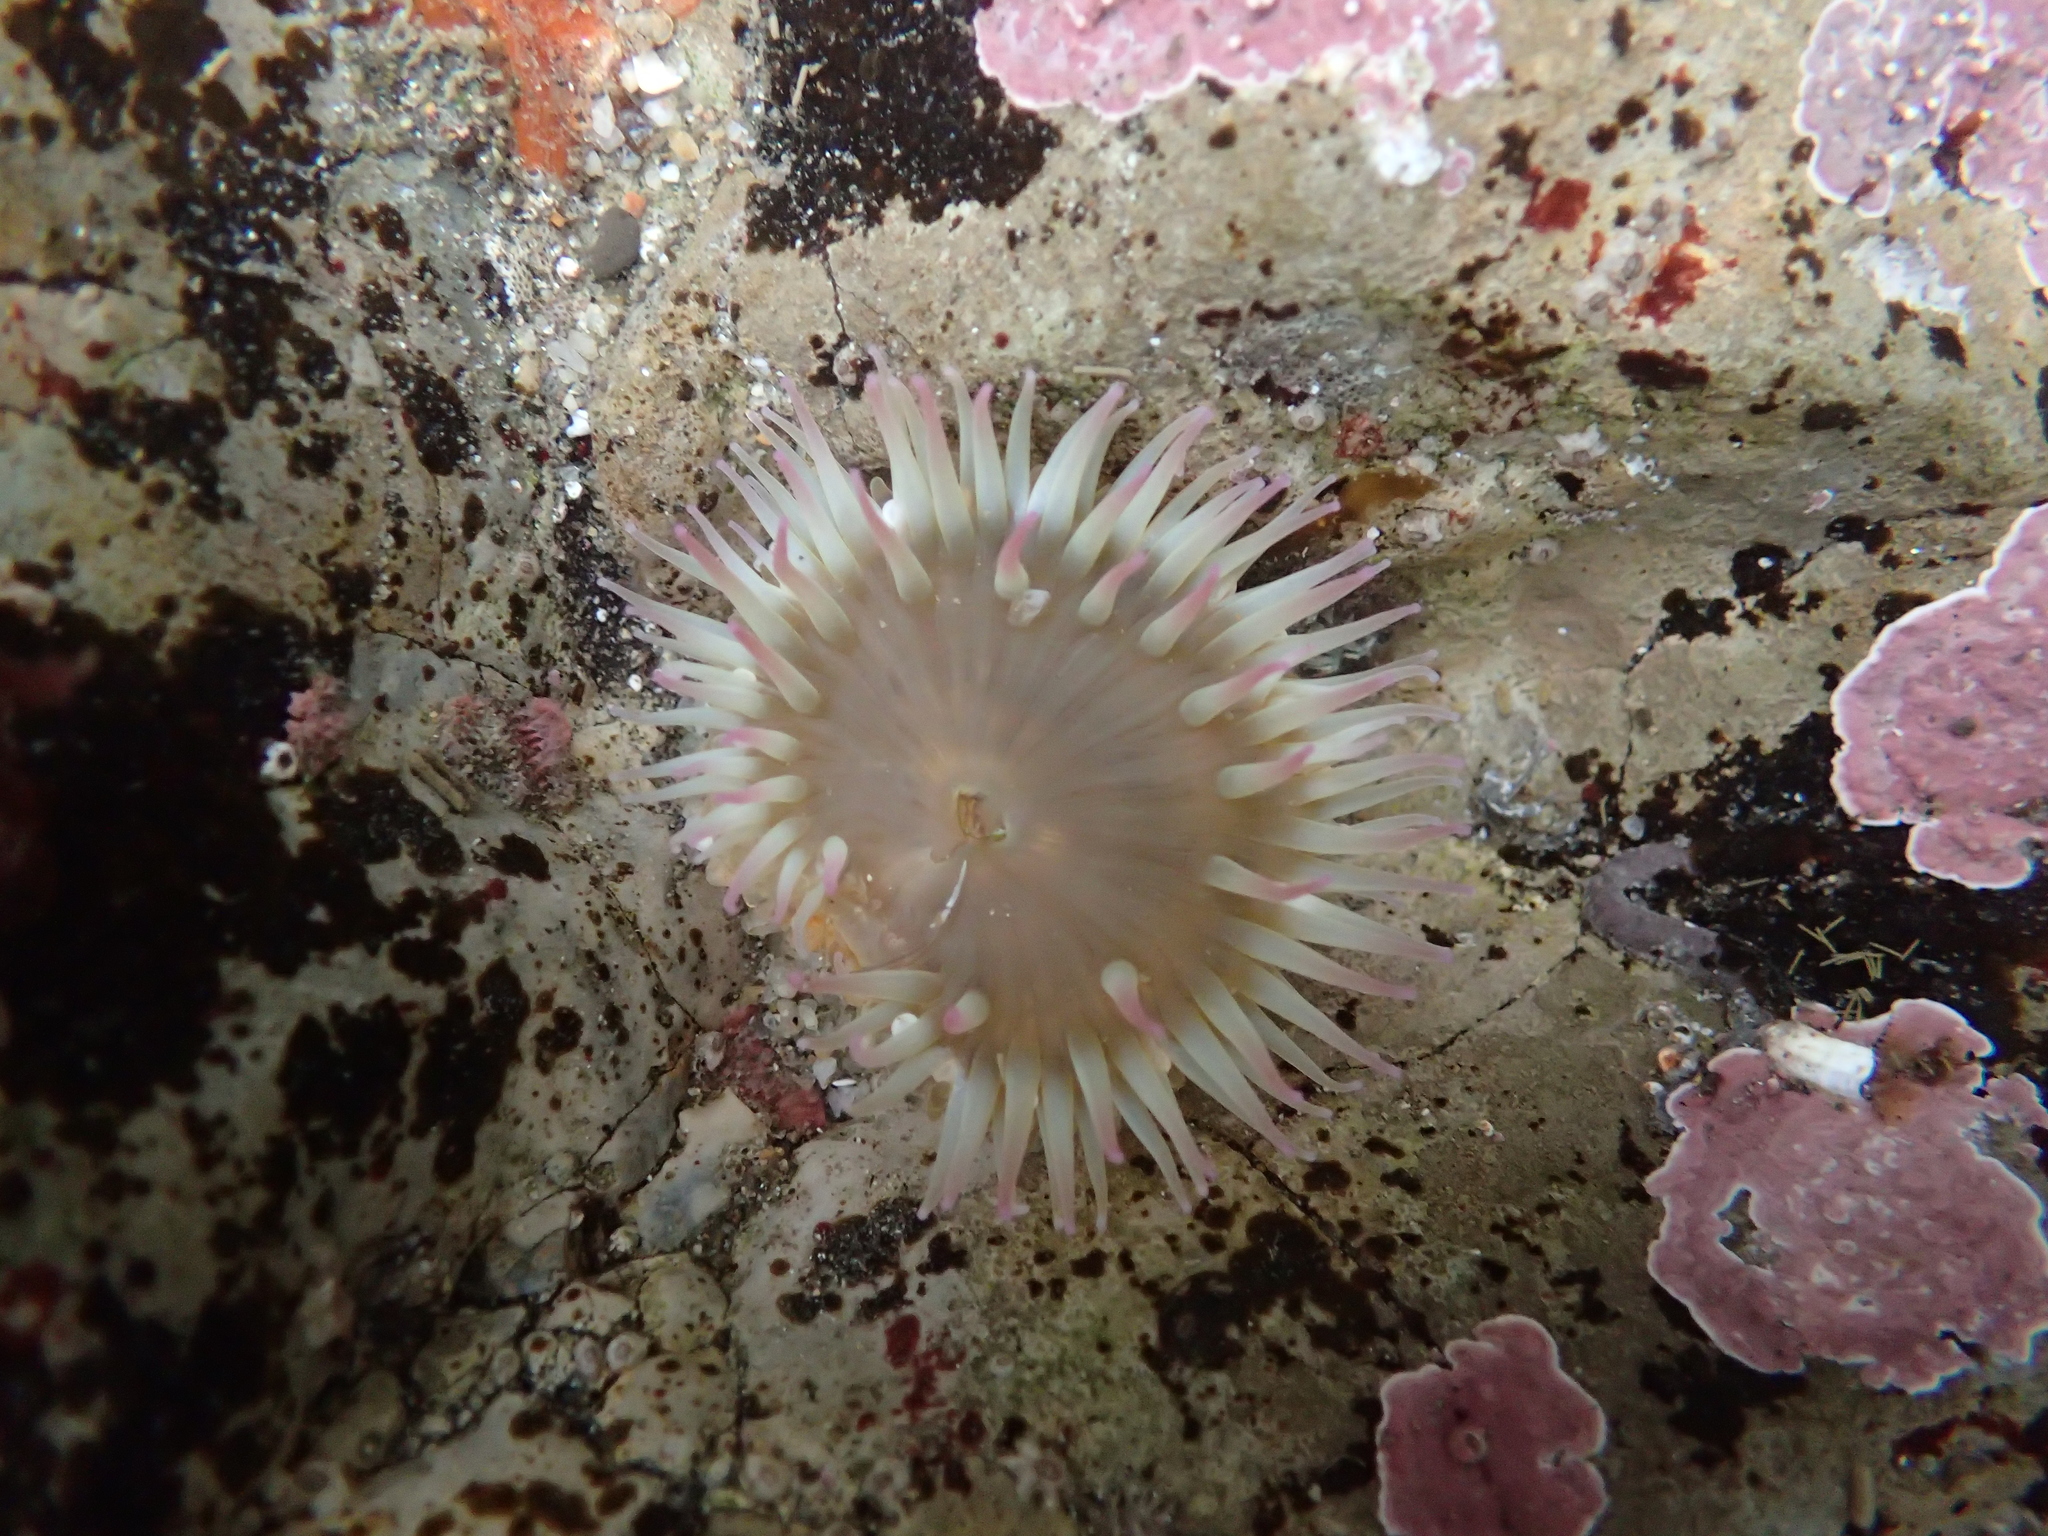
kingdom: Animalia
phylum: Cnidaria
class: Anthozoa
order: Actiniaria
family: Actiniidae
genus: Anthopleura
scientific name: Anthopleura elegantissima
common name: Clonal anemone
